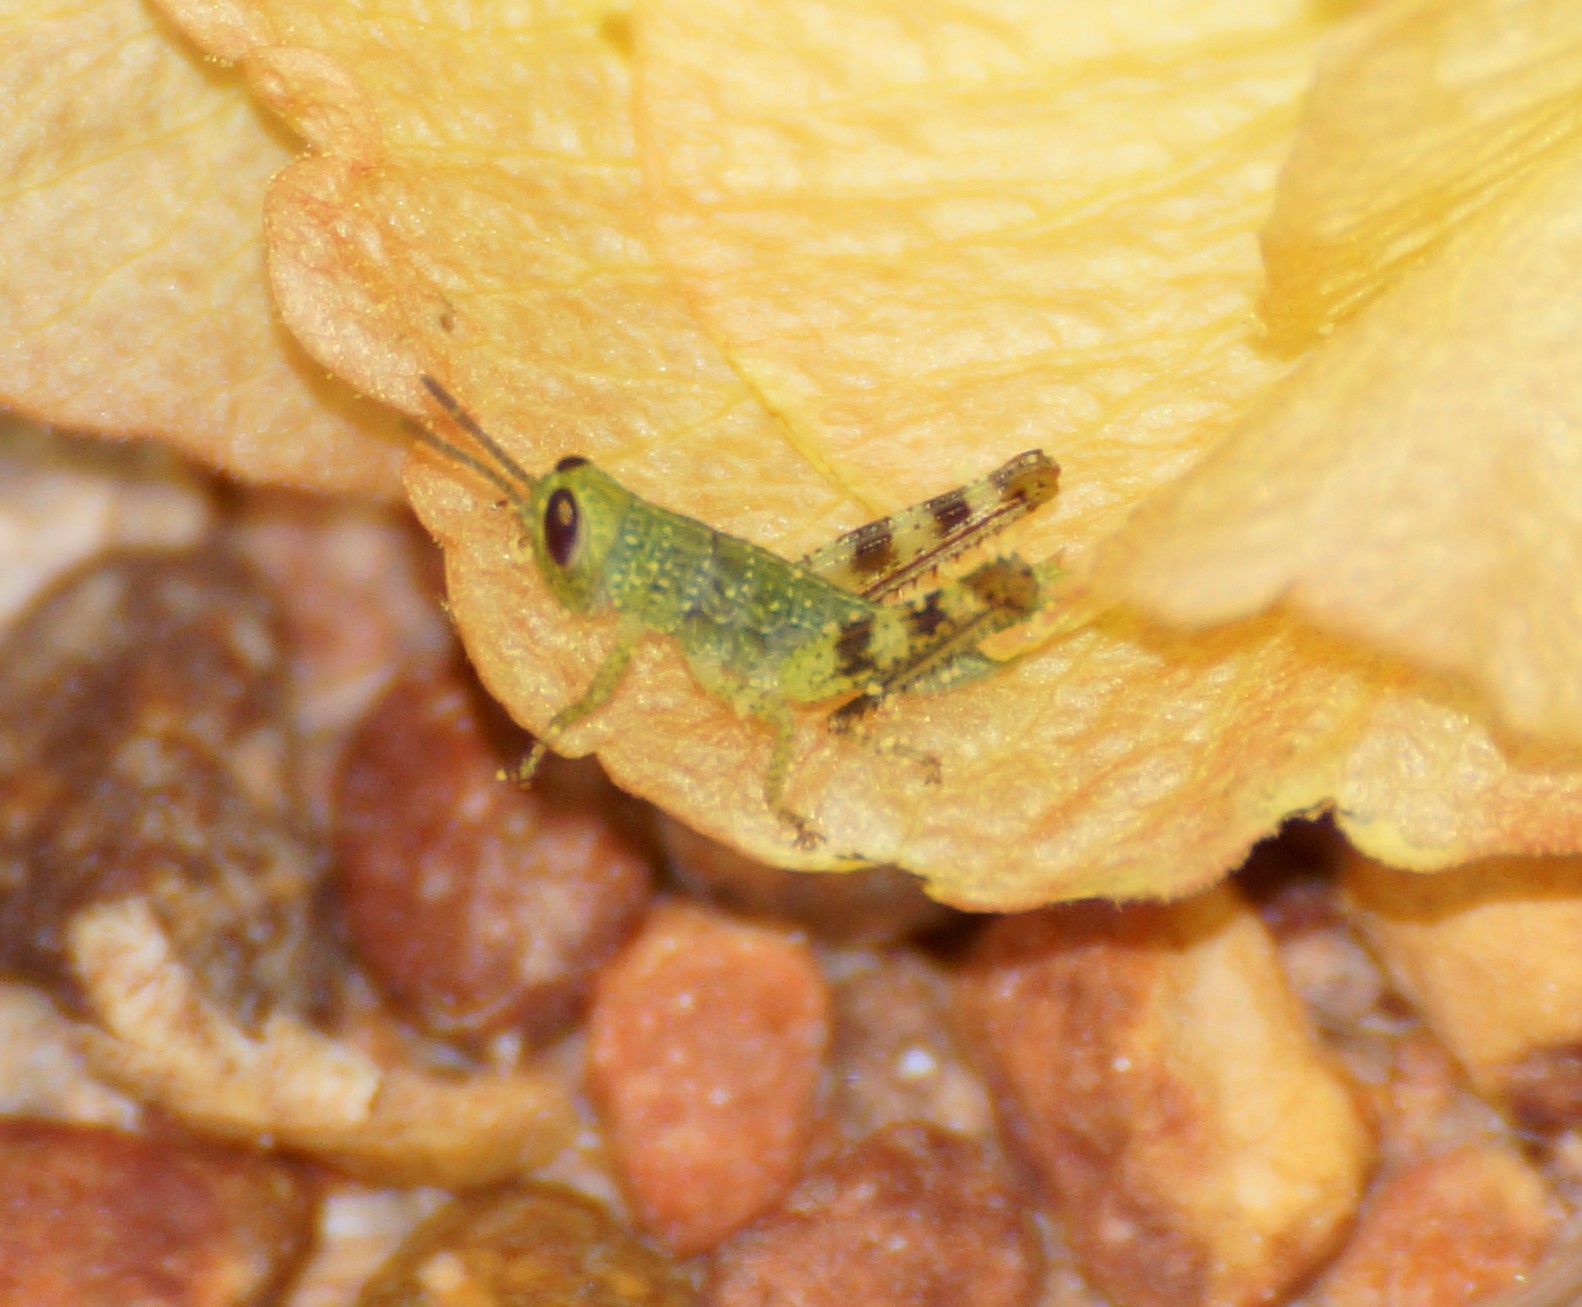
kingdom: Animalia
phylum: Arthropoda
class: Insecta
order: Orthoptera
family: Acrididae
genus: Valanga
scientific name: Valanga irregularis
